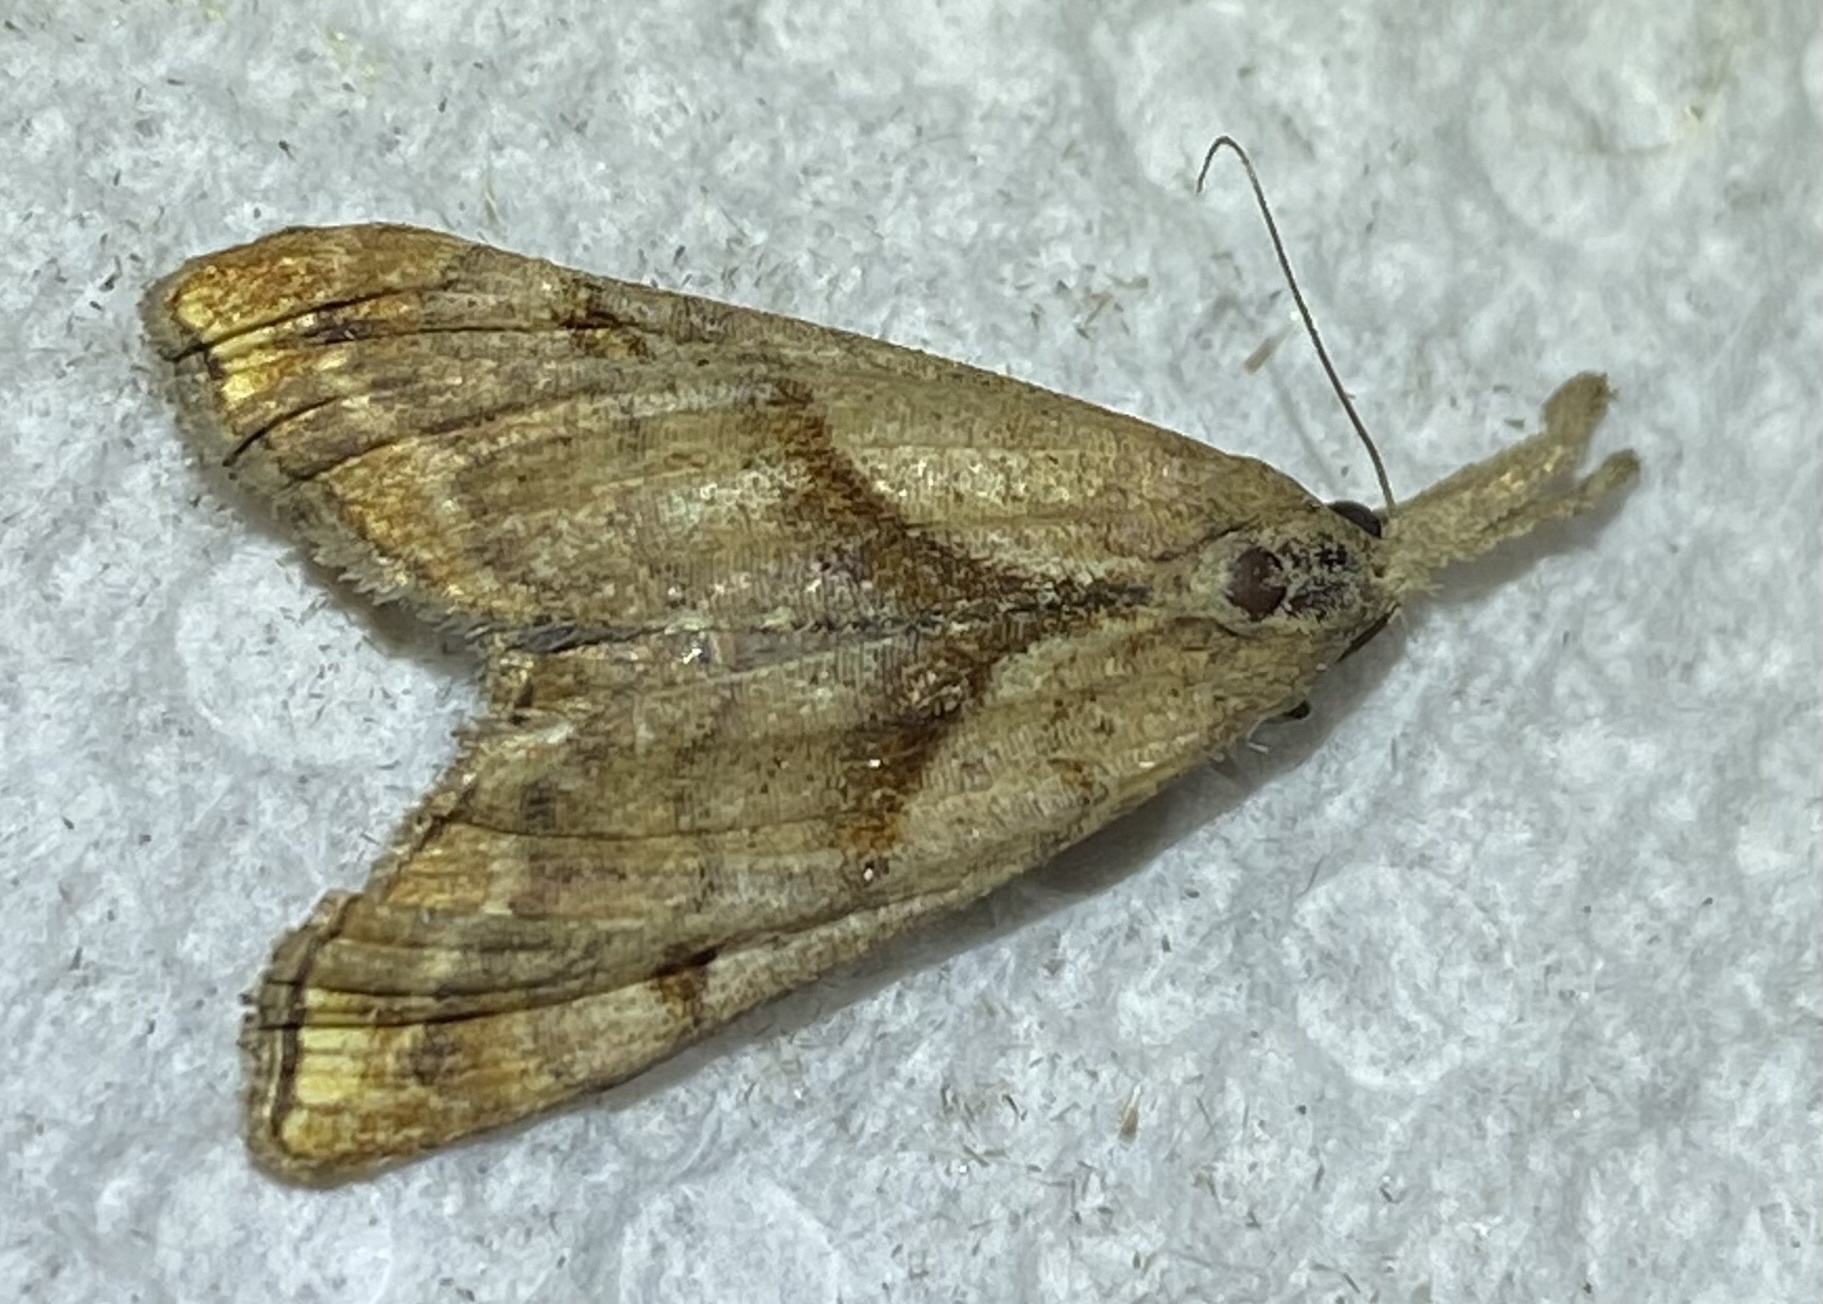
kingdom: Animalia
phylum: Arthropoda
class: Insecta
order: Lepidoptera
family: Erebidae
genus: Palthis
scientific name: Palthis angulalis
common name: Dark-spotted palthis moth
